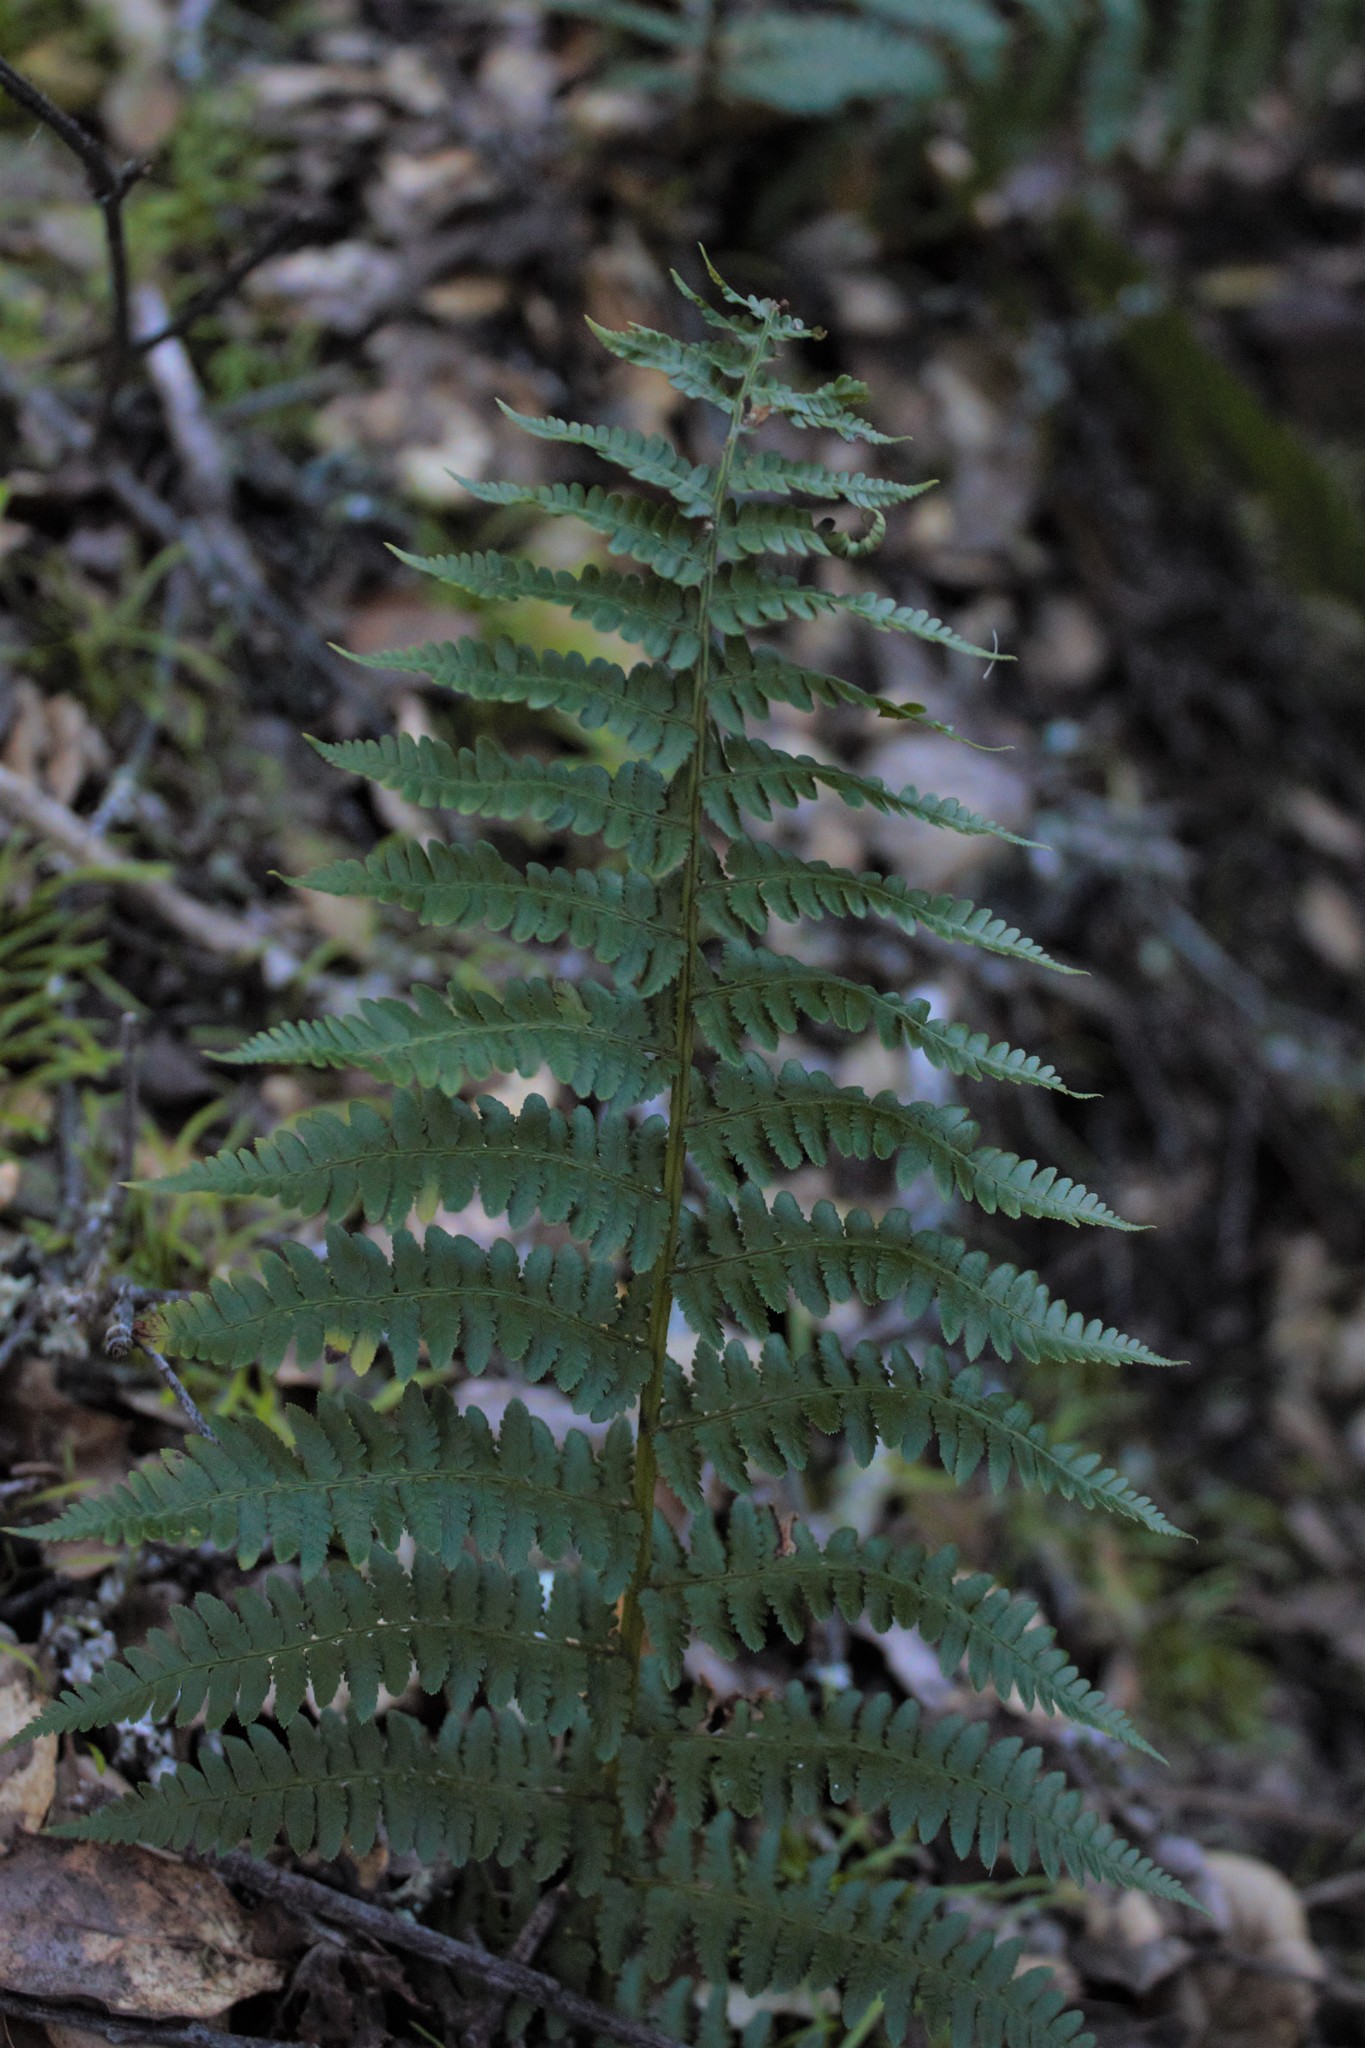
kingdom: Plantae
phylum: Tracheophyta
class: Polypodiopsida
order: Polypodiales
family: Dryopteridaceae
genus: Dryopteris
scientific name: Dryopteris arguta
